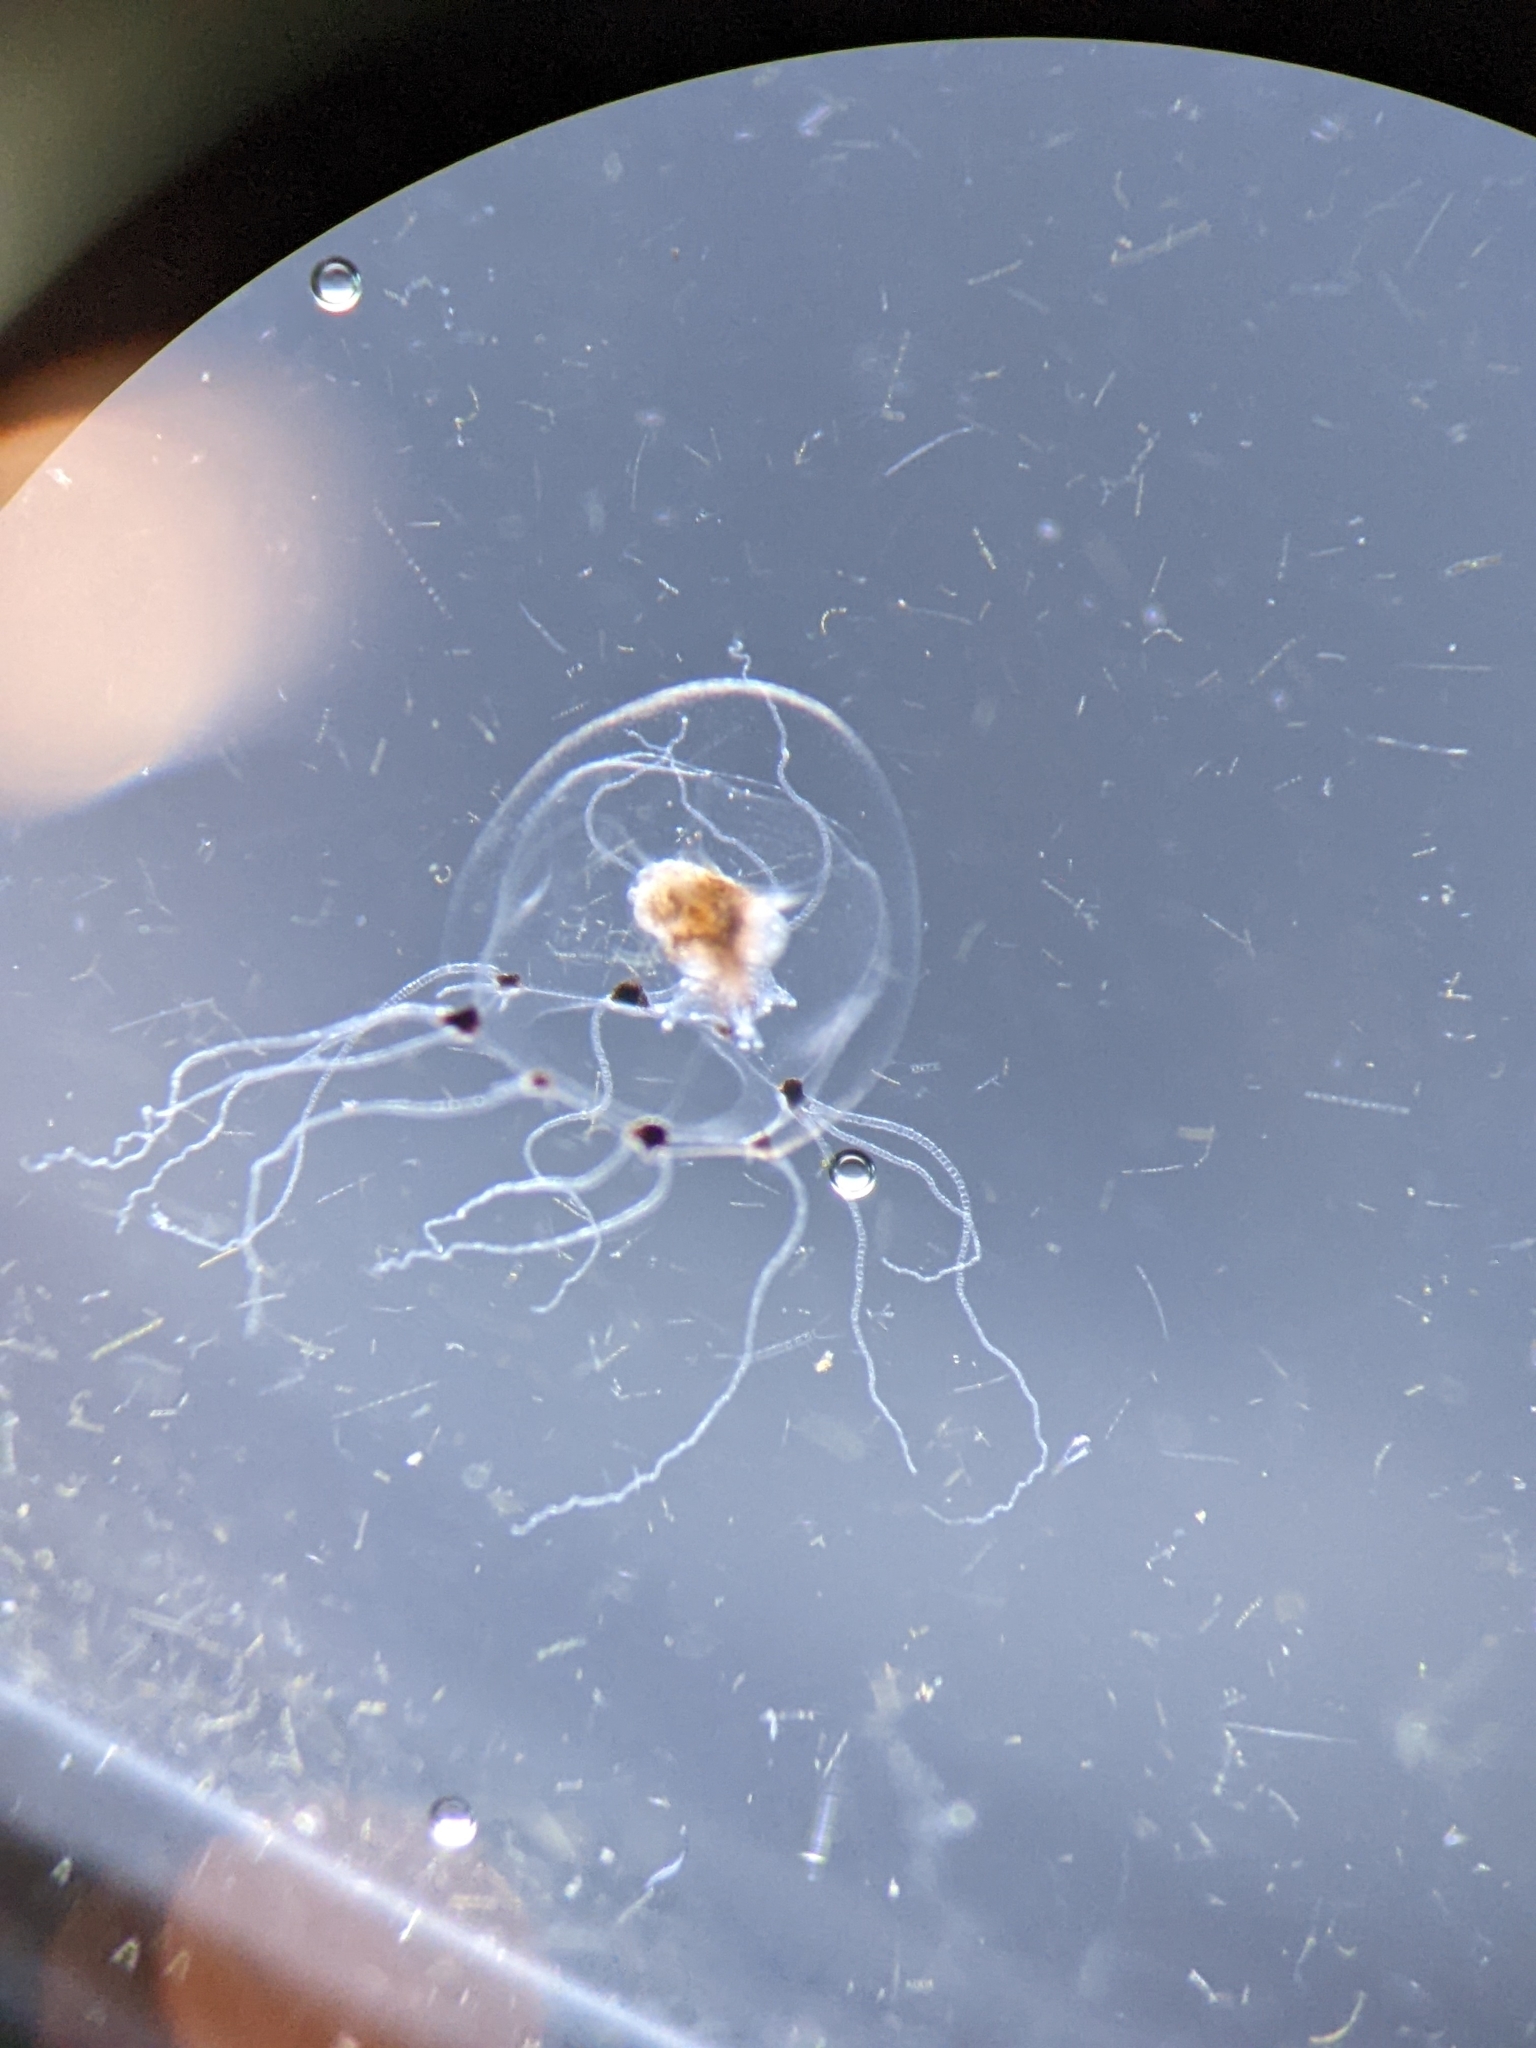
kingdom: Animalia
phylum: Cnidaria
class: Hydrozoa
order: Anthoathecata
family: Rathkeidae
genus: Rathkea
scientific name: Rathkea octopunctata
